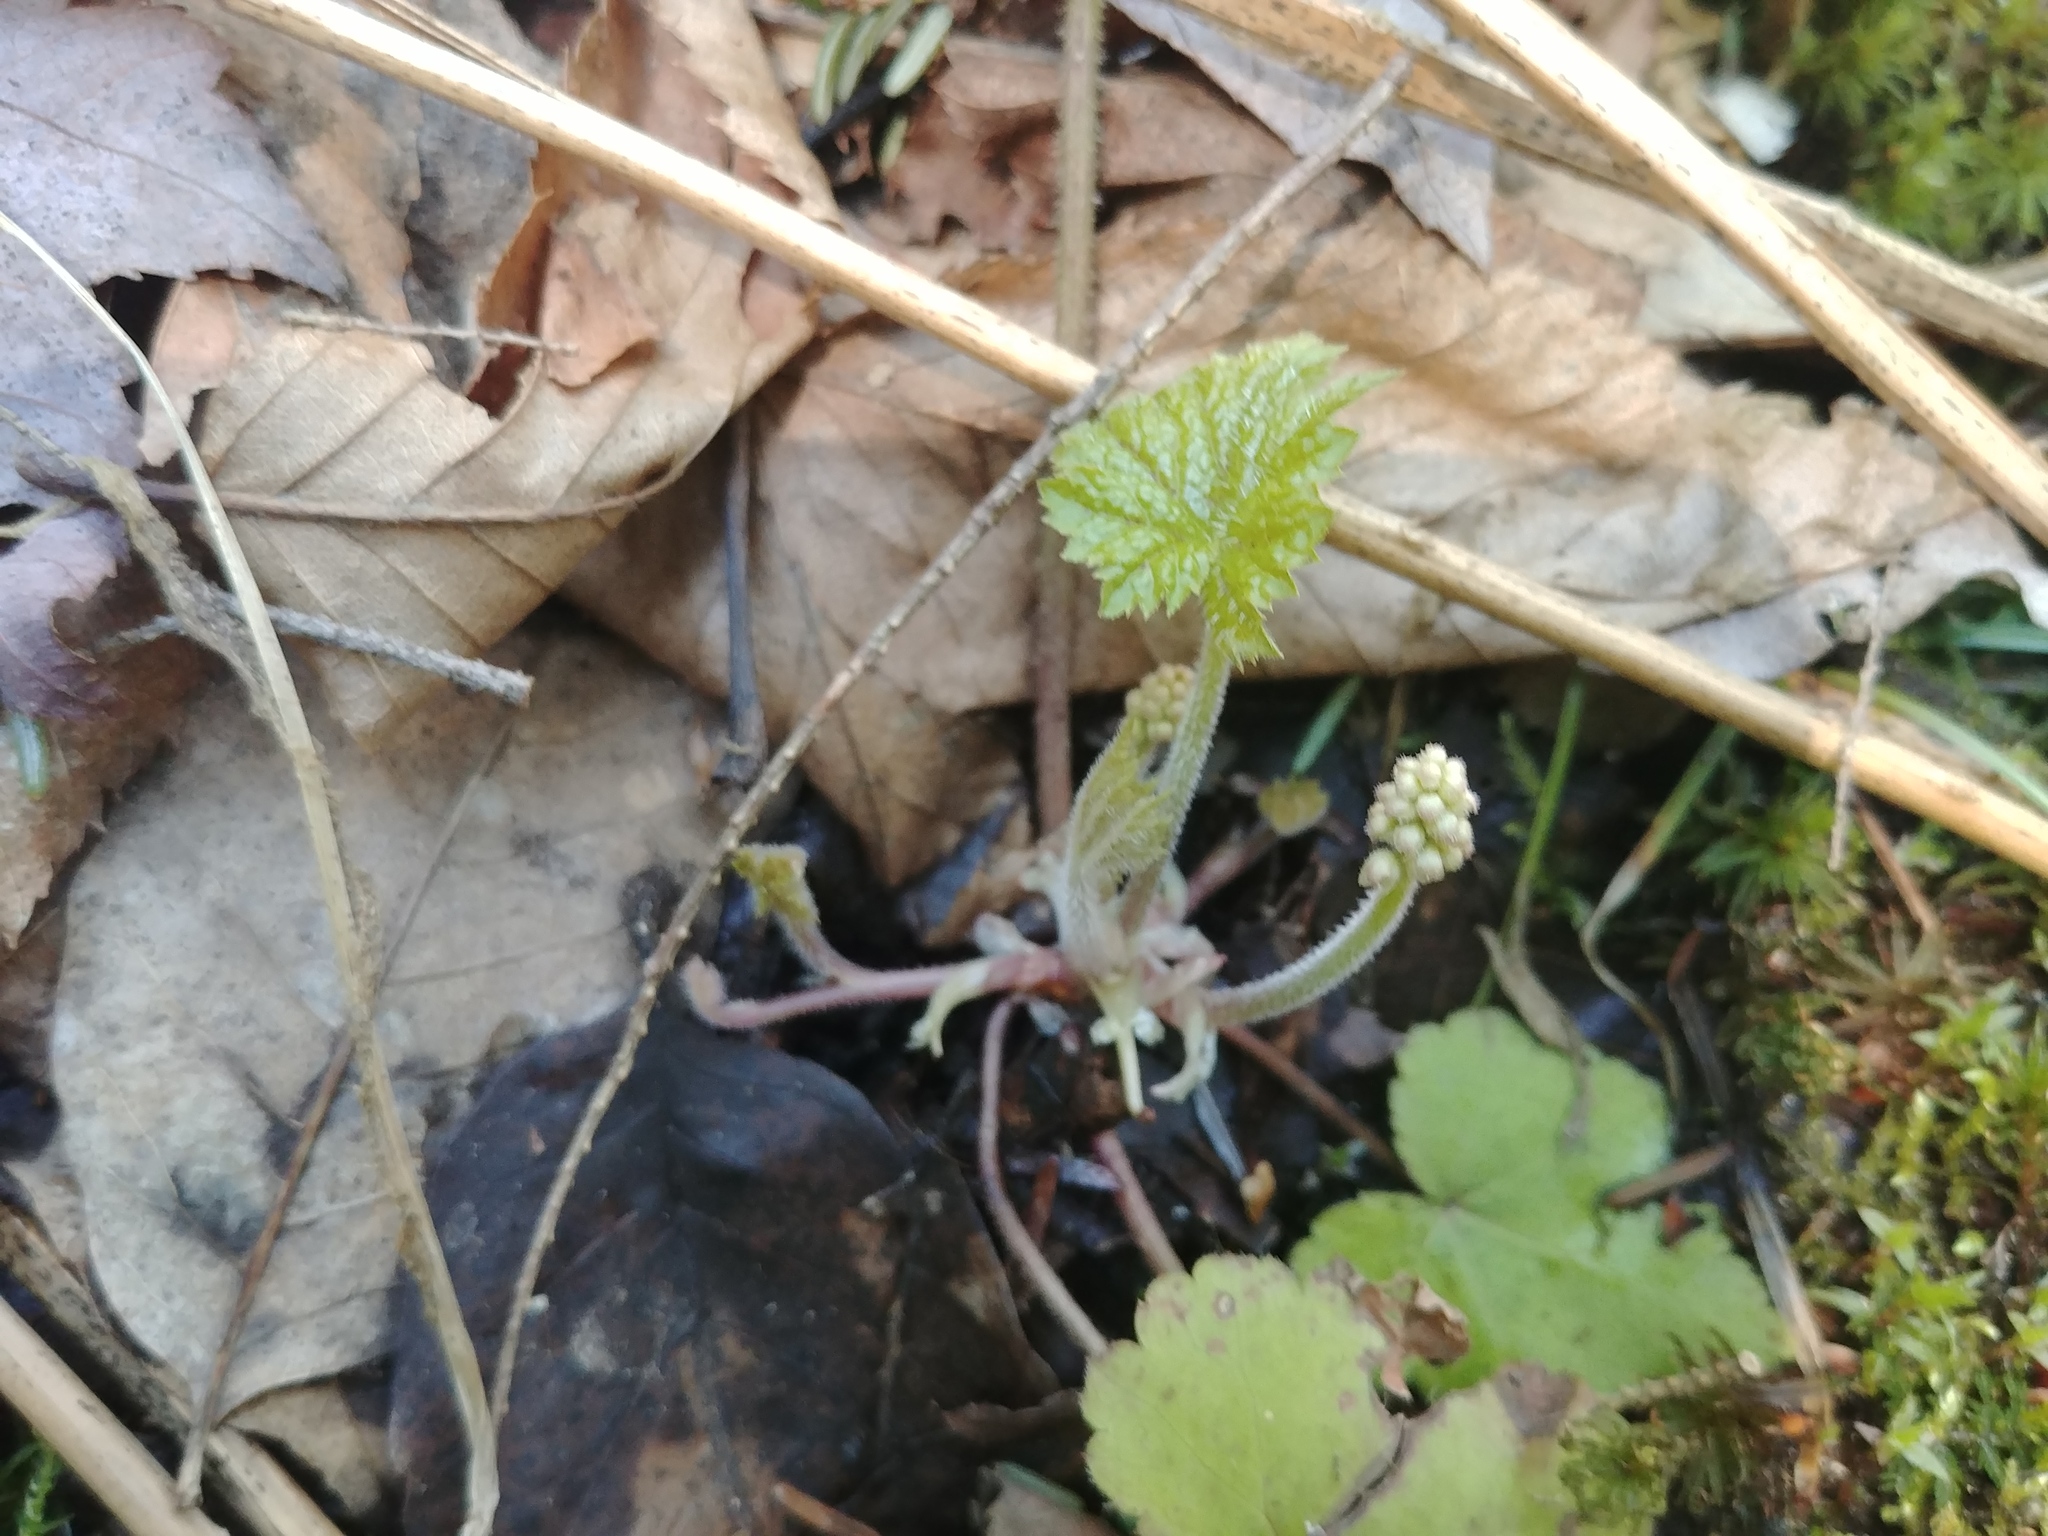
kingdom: Plantae
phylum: Tracheophyta
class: Magnoliopsida
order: Saxifragales
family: Saxifragaceae
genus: Tiarella
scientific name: Tiarella stolonifera
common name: Stoloniferous foamflower
